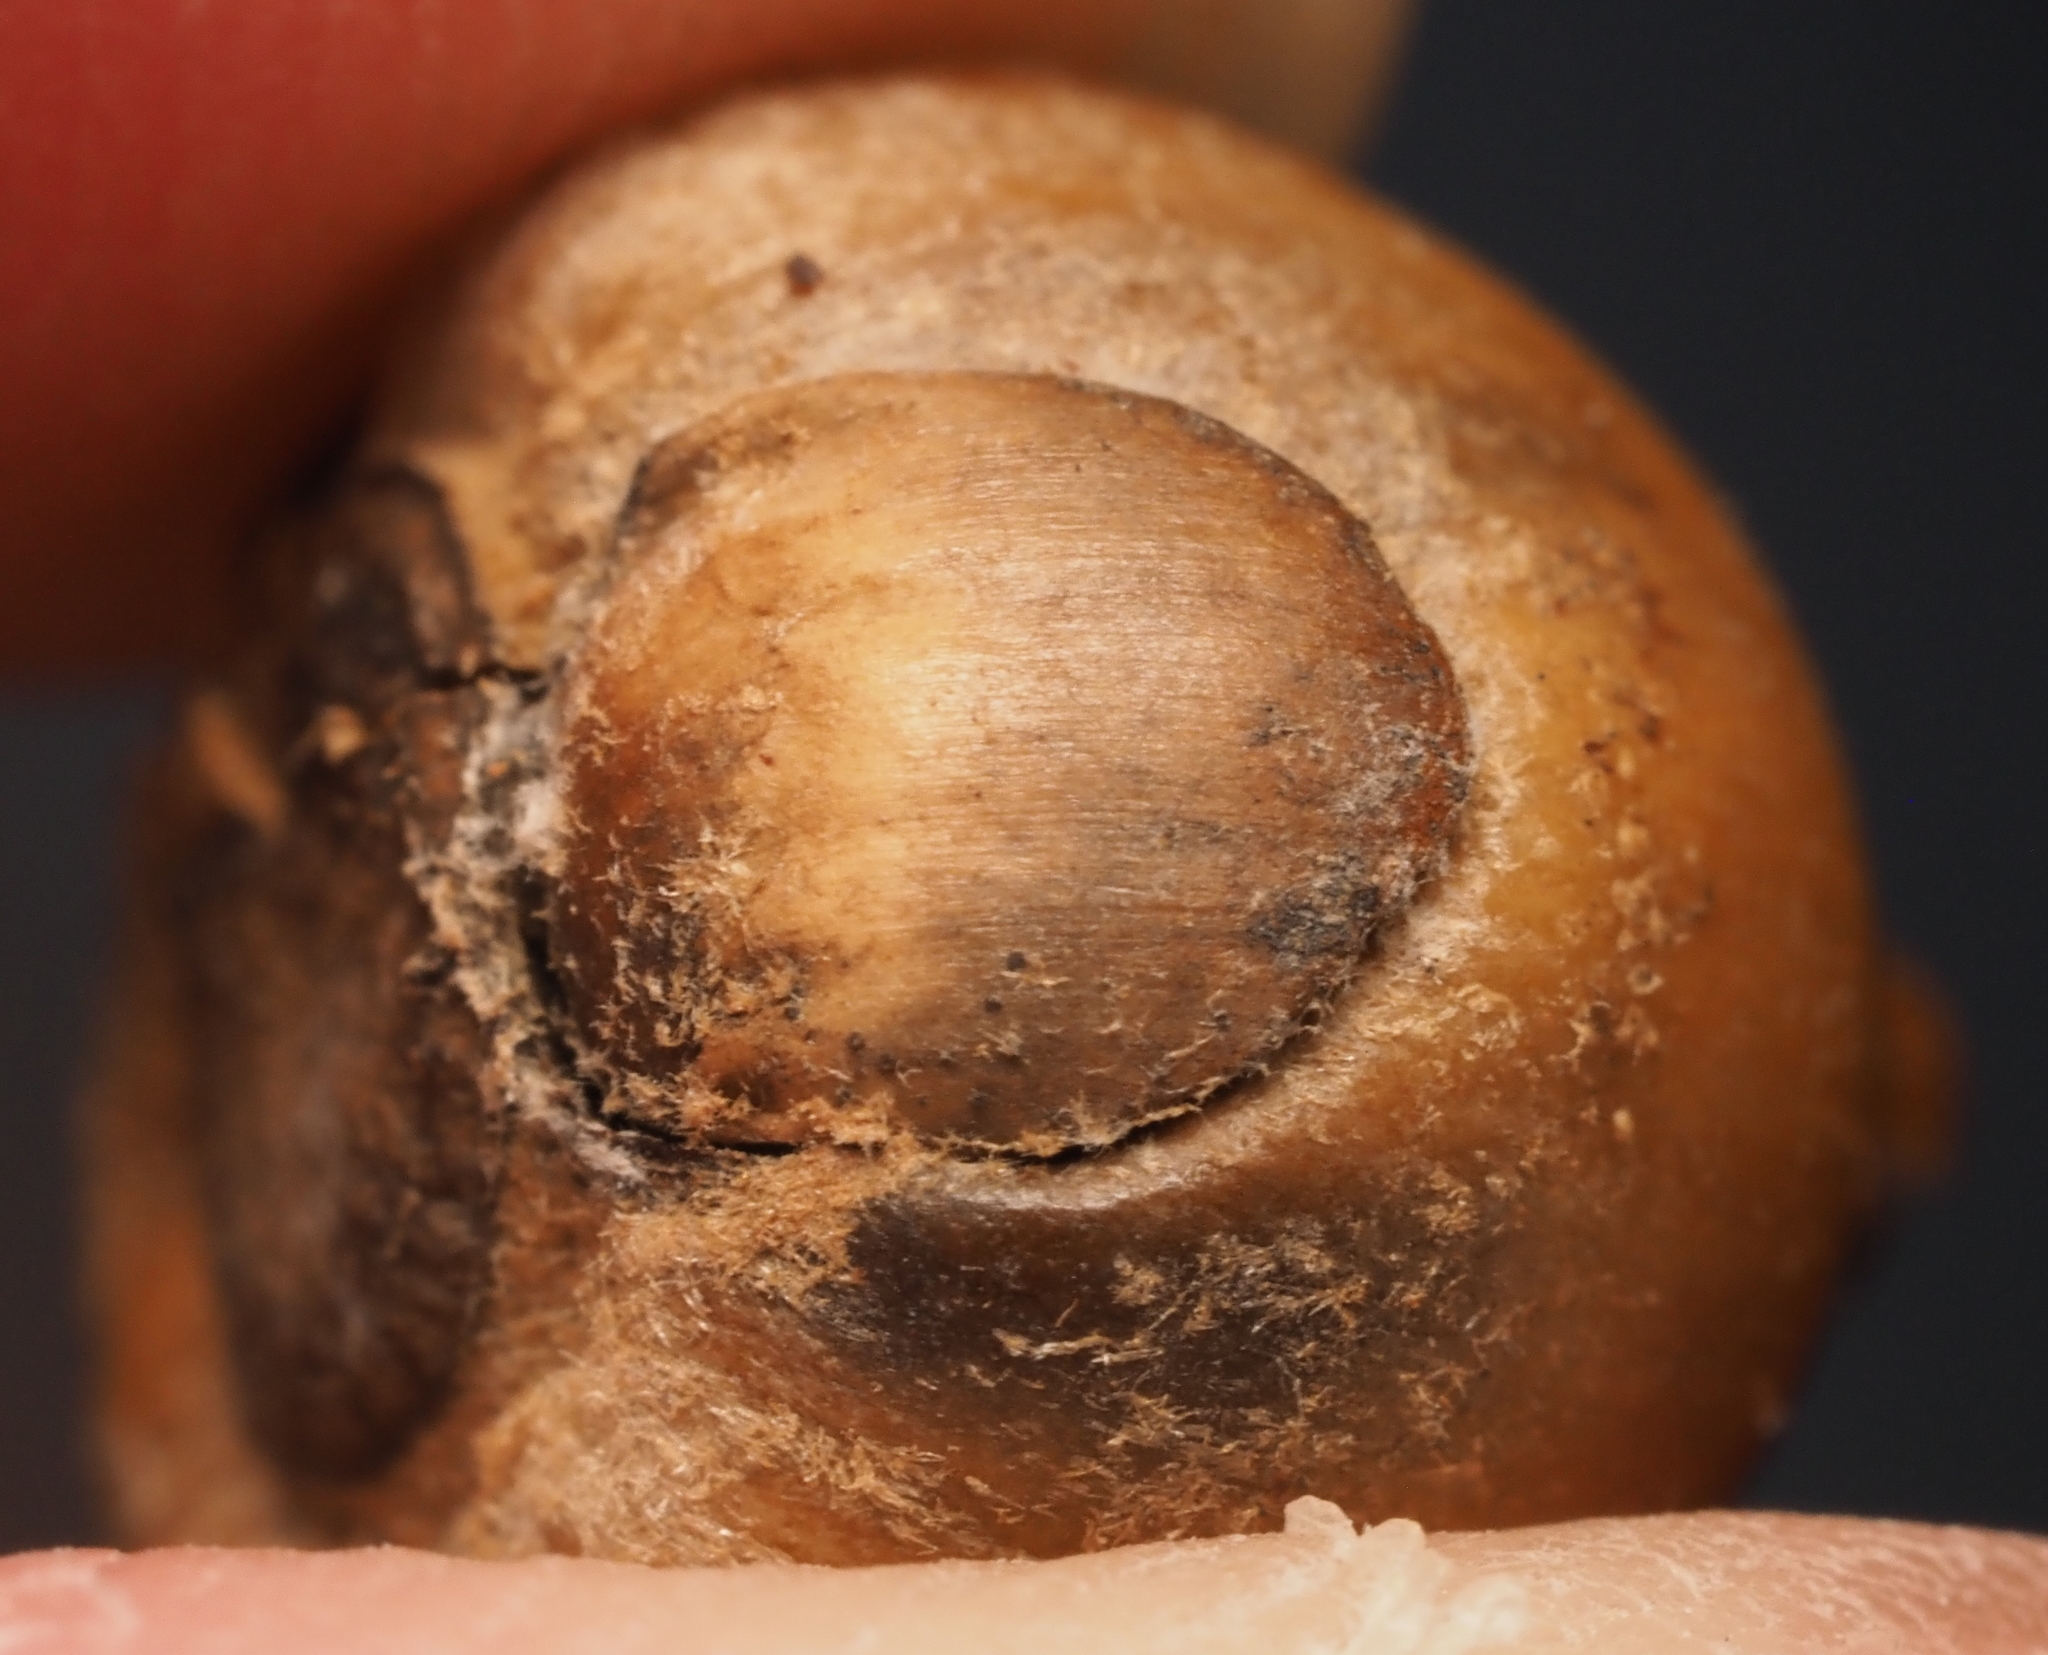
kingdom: Animalia
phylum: Arthropoda
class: Insecta
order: Hymenoptera
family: Cynipidae
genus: Callirhytis
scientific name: Callirhytis
